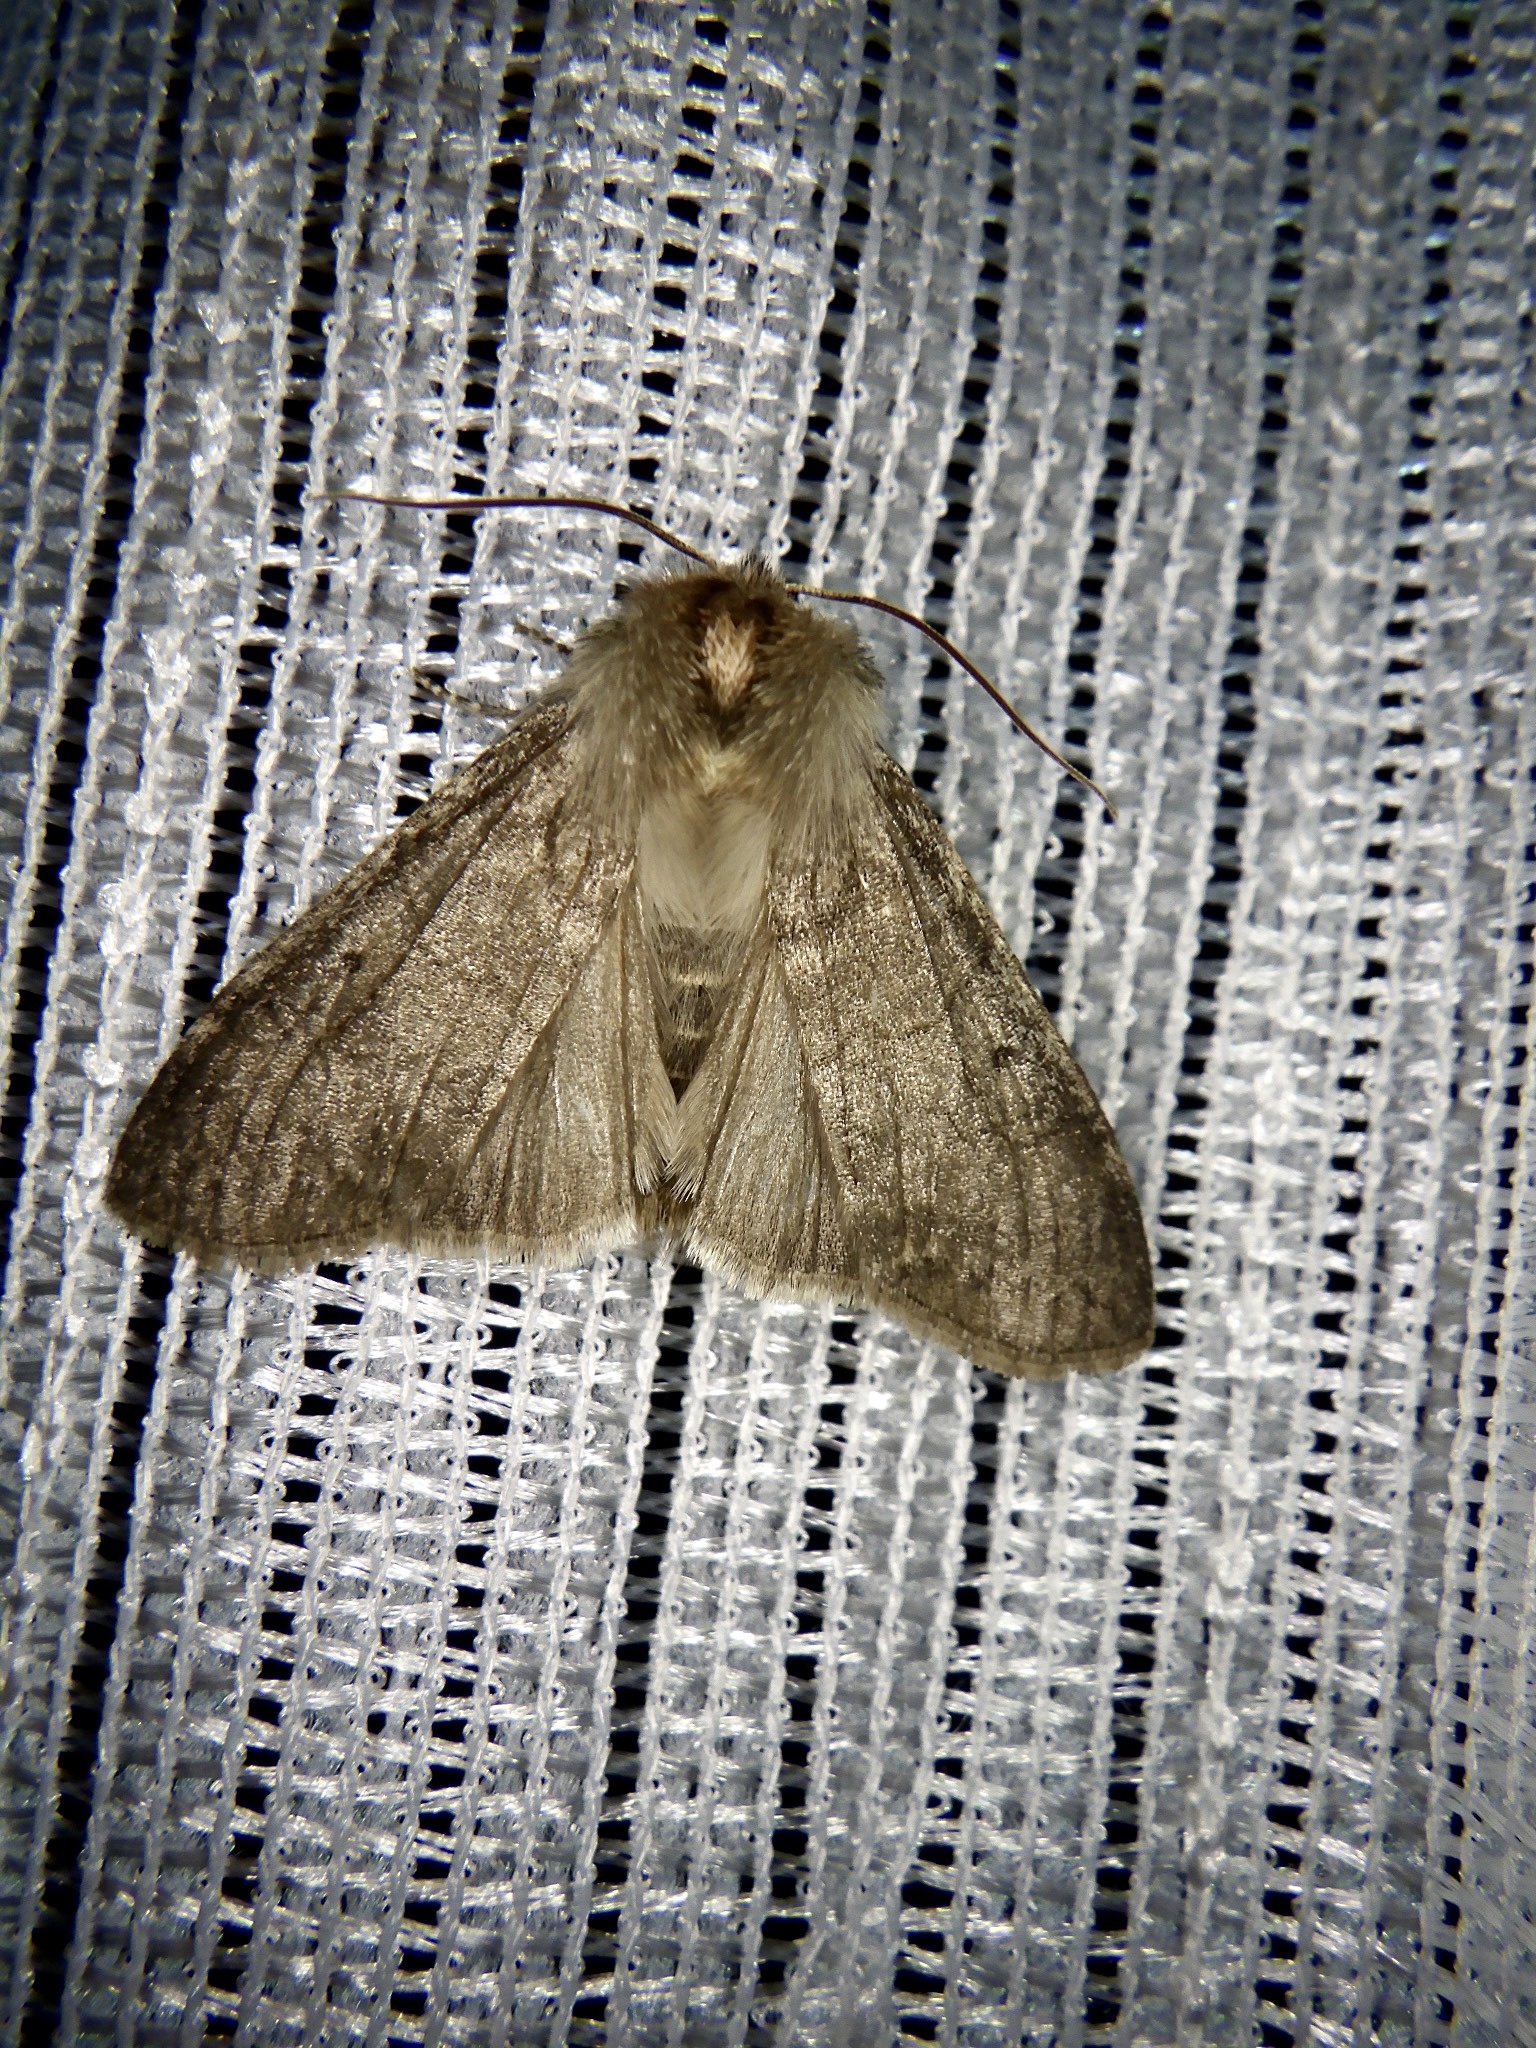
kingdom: Animalia
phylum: Arthropoda
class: Insecta
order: Lepidoptera
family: Drepanidae
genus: Achlya
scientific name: Achlya kuramana
